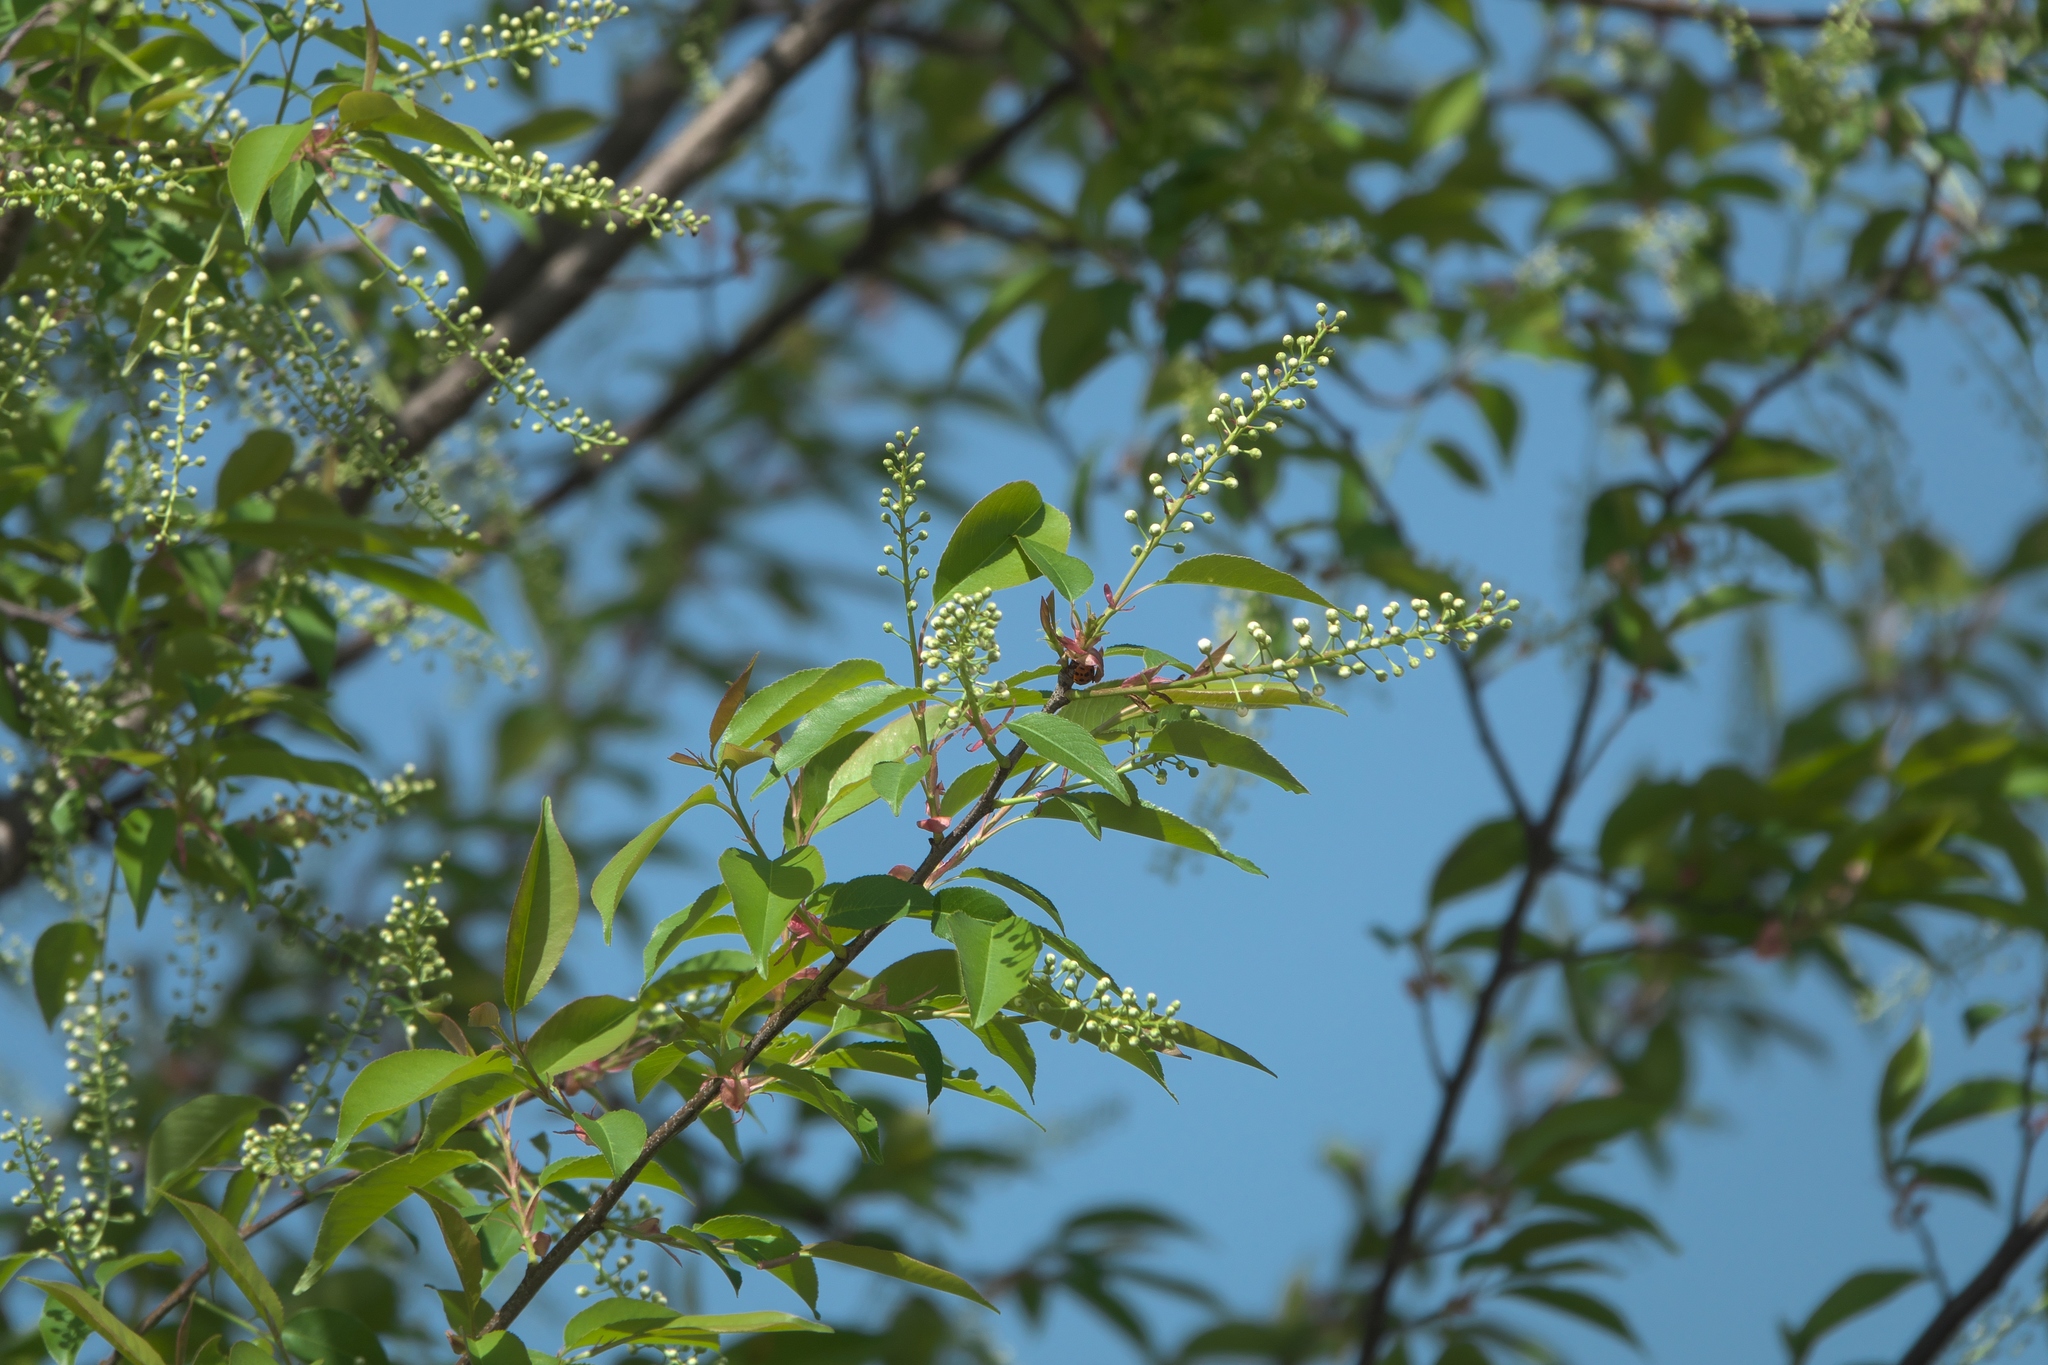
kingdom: Plantae
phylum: Tracheophyta
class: Magnoliopsida
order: Rosales
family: Rosaceae
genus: Prunus
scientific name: Prunus serotina
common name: Black cherry
